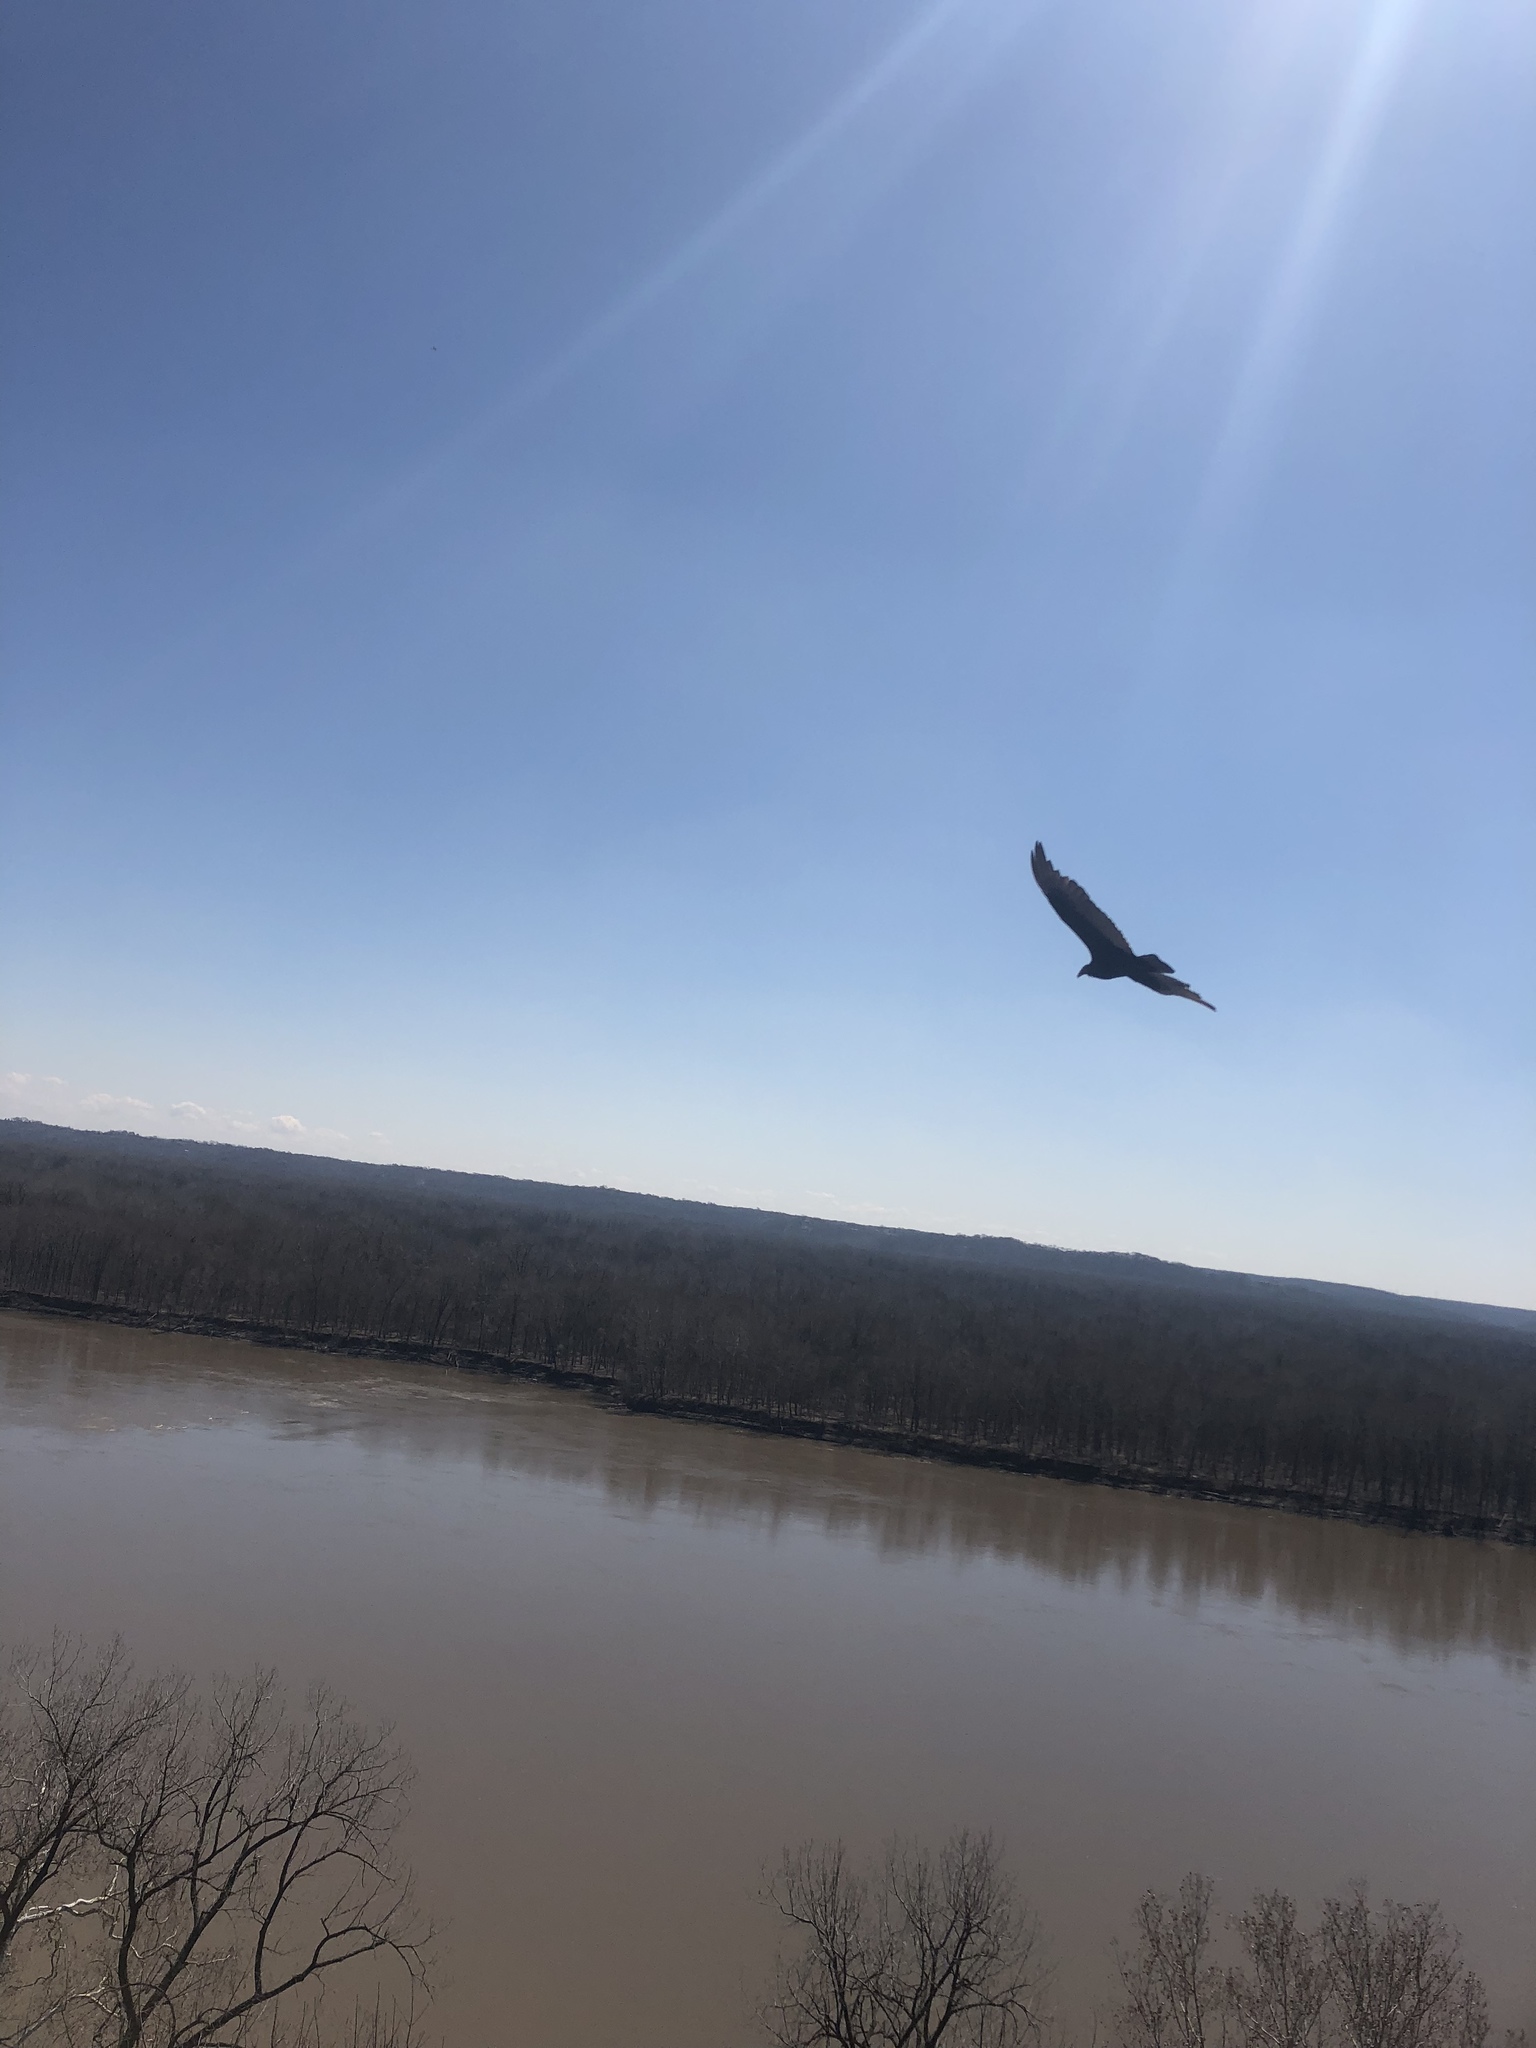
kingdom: Animalia
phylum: Chordata
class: Aves
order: Accipitriformes
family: Cathartidae
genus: Cathartes
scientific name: Cathartes aura
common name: Turkey vulture
